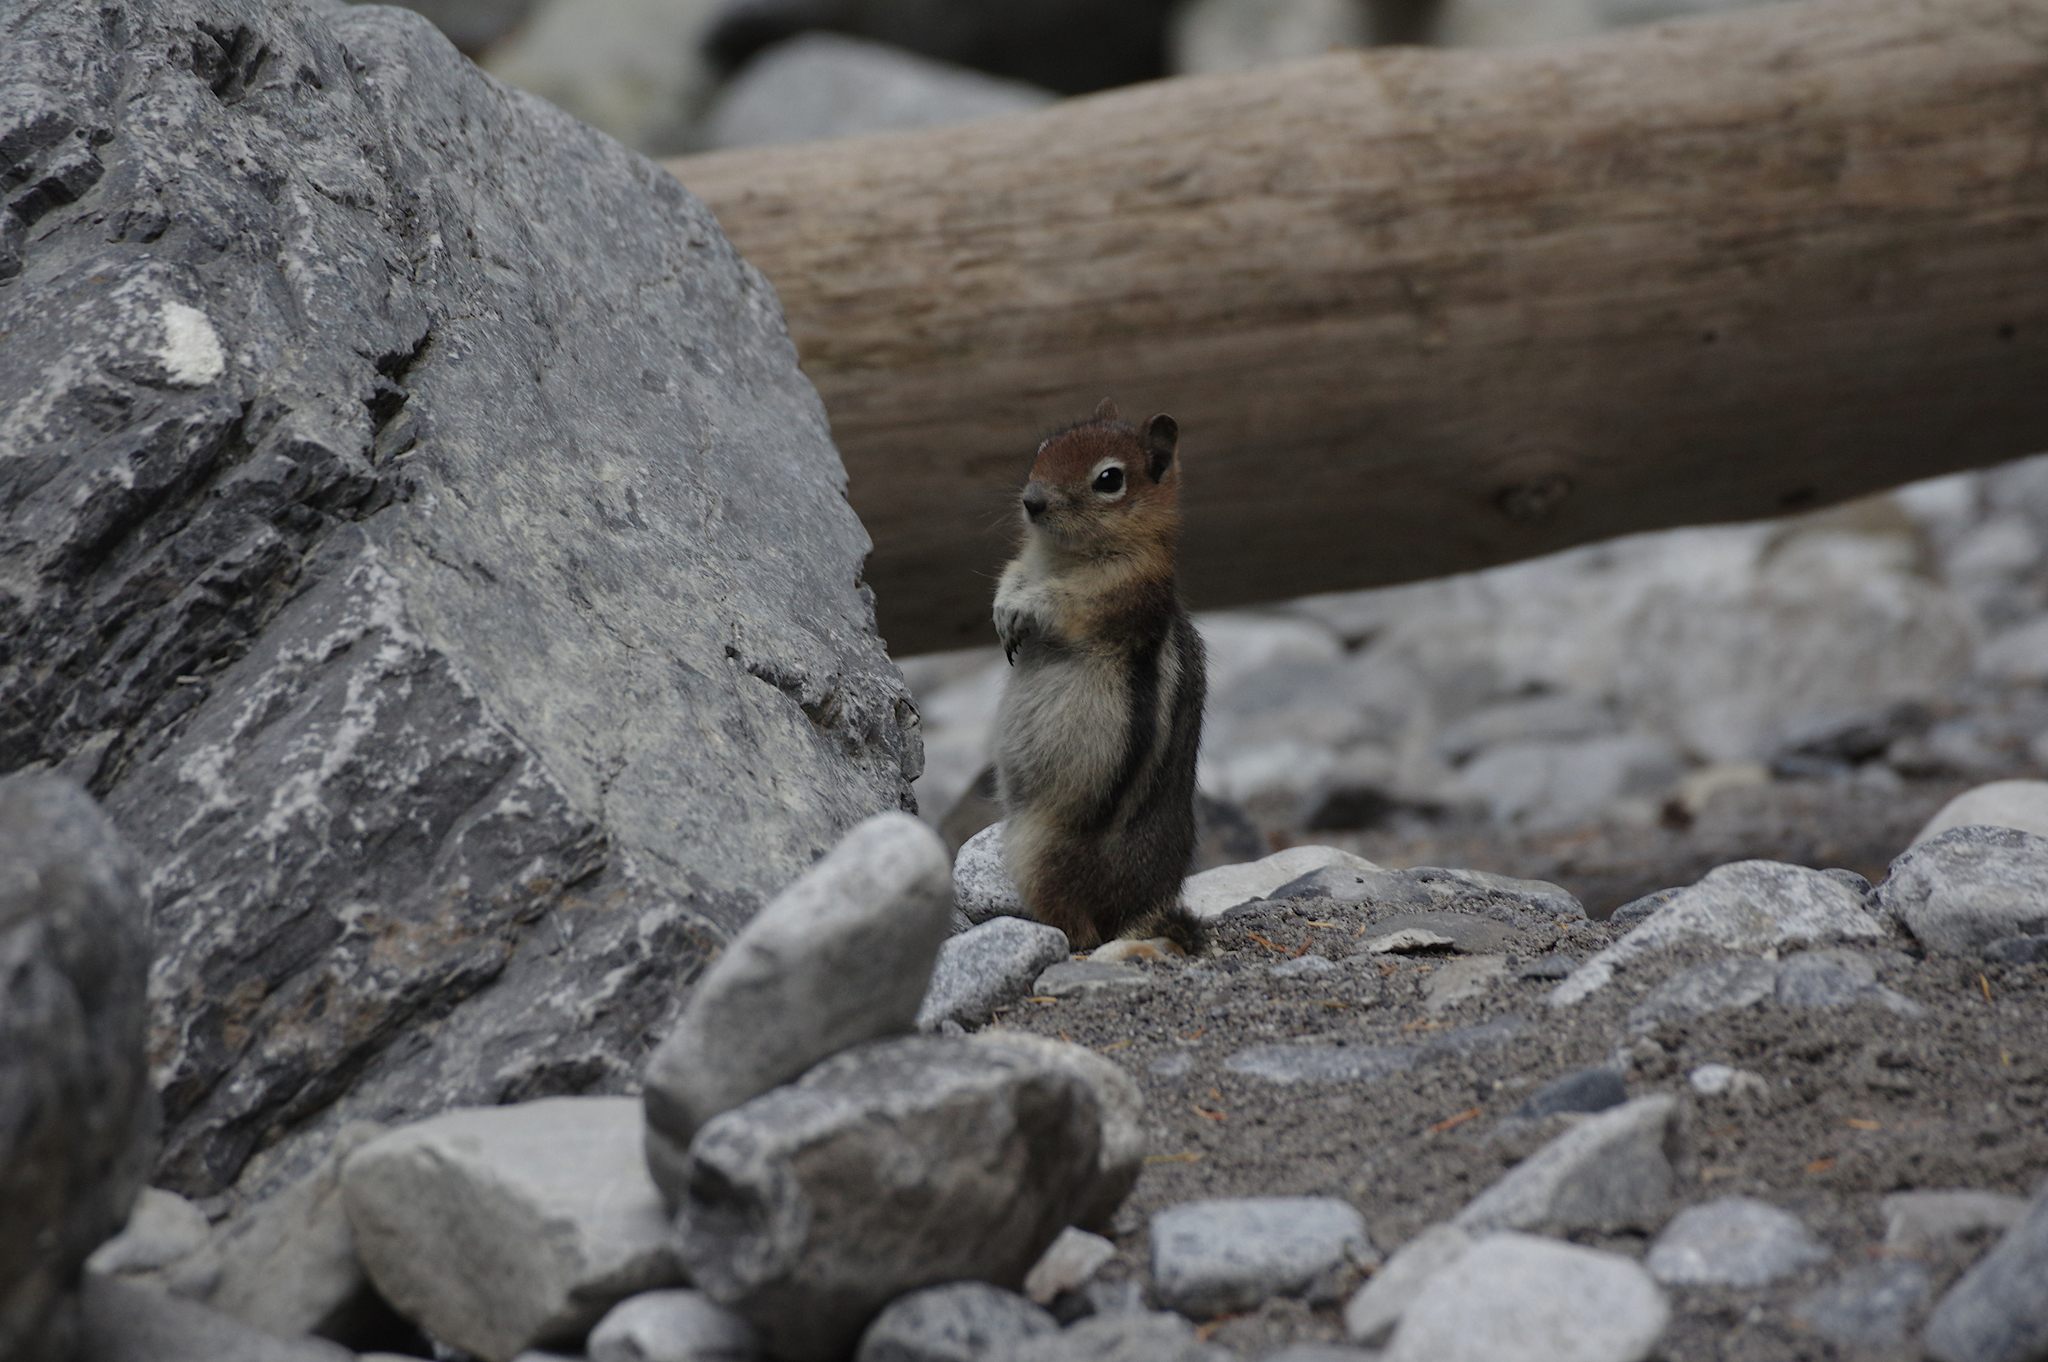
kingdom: Animalia
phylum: Chordata
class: Mammalia
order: Rodentia
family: Sciuridae
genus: Callospermophilus
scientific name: Callospermophilus lateralis
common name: Golden-mantled ground squirrel
